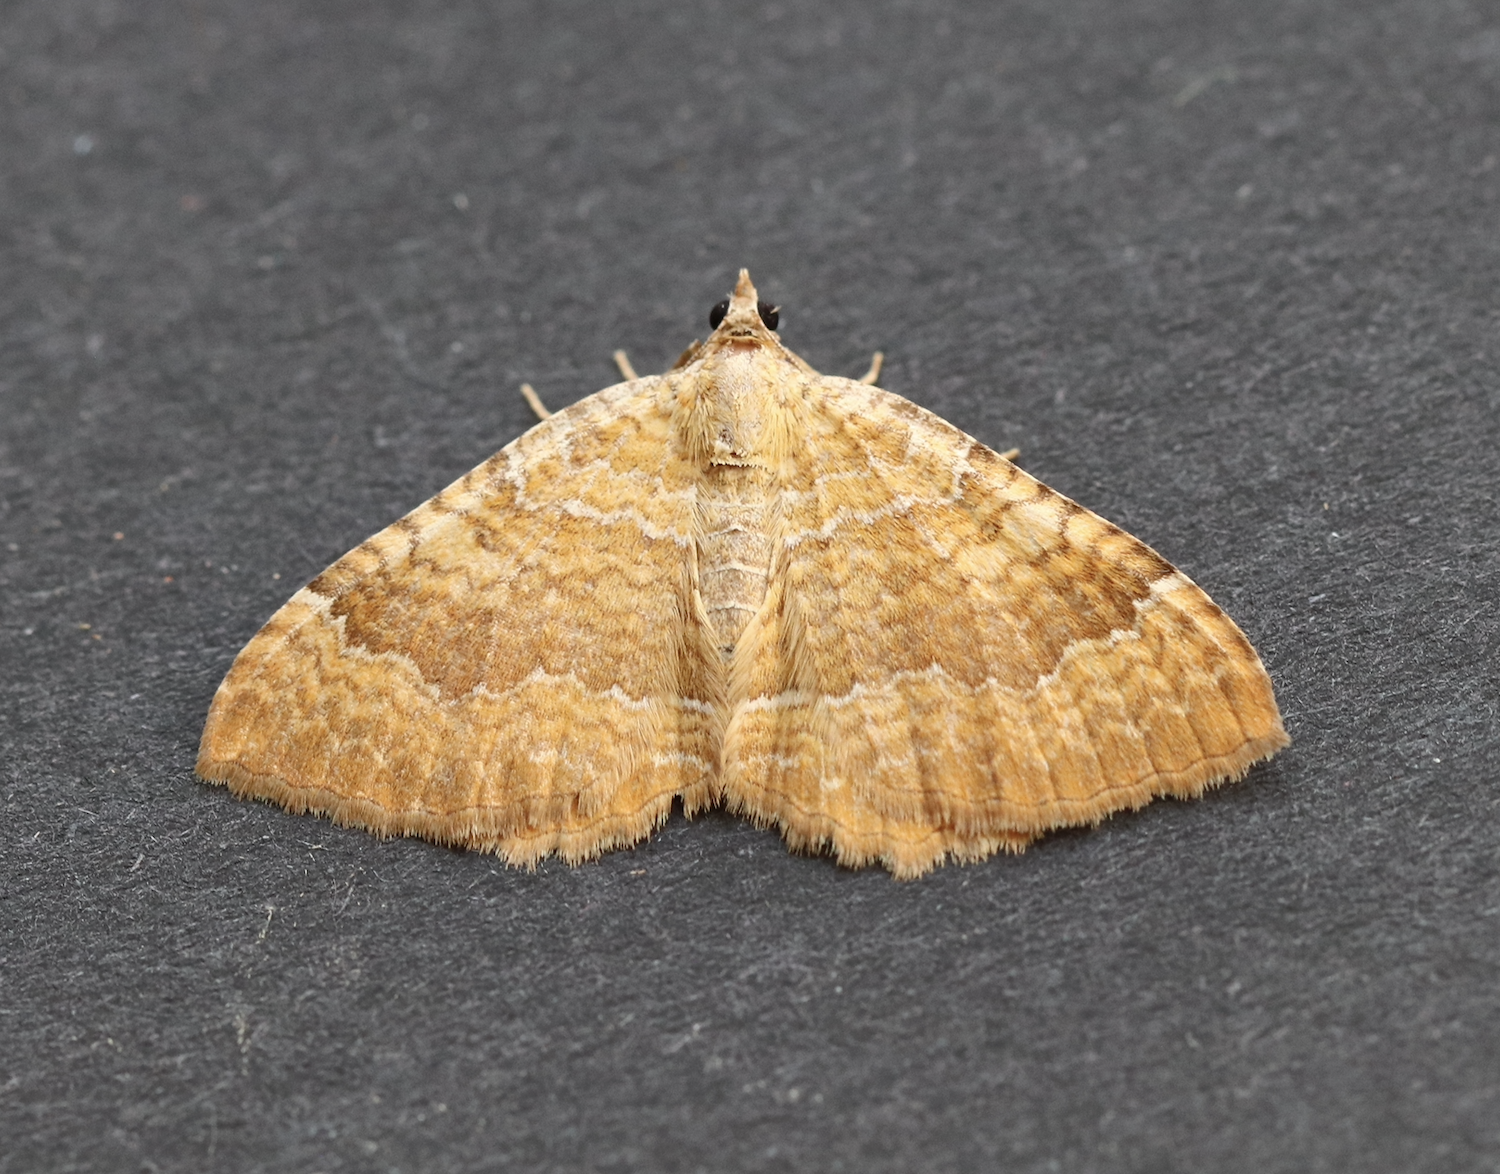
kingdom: Animalia
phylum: Arthropoda
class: Insecta
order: Lepidoptera
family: Geometridae
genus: Camptogramma
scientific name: Camptogramma bilineata
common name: Yellow shell
